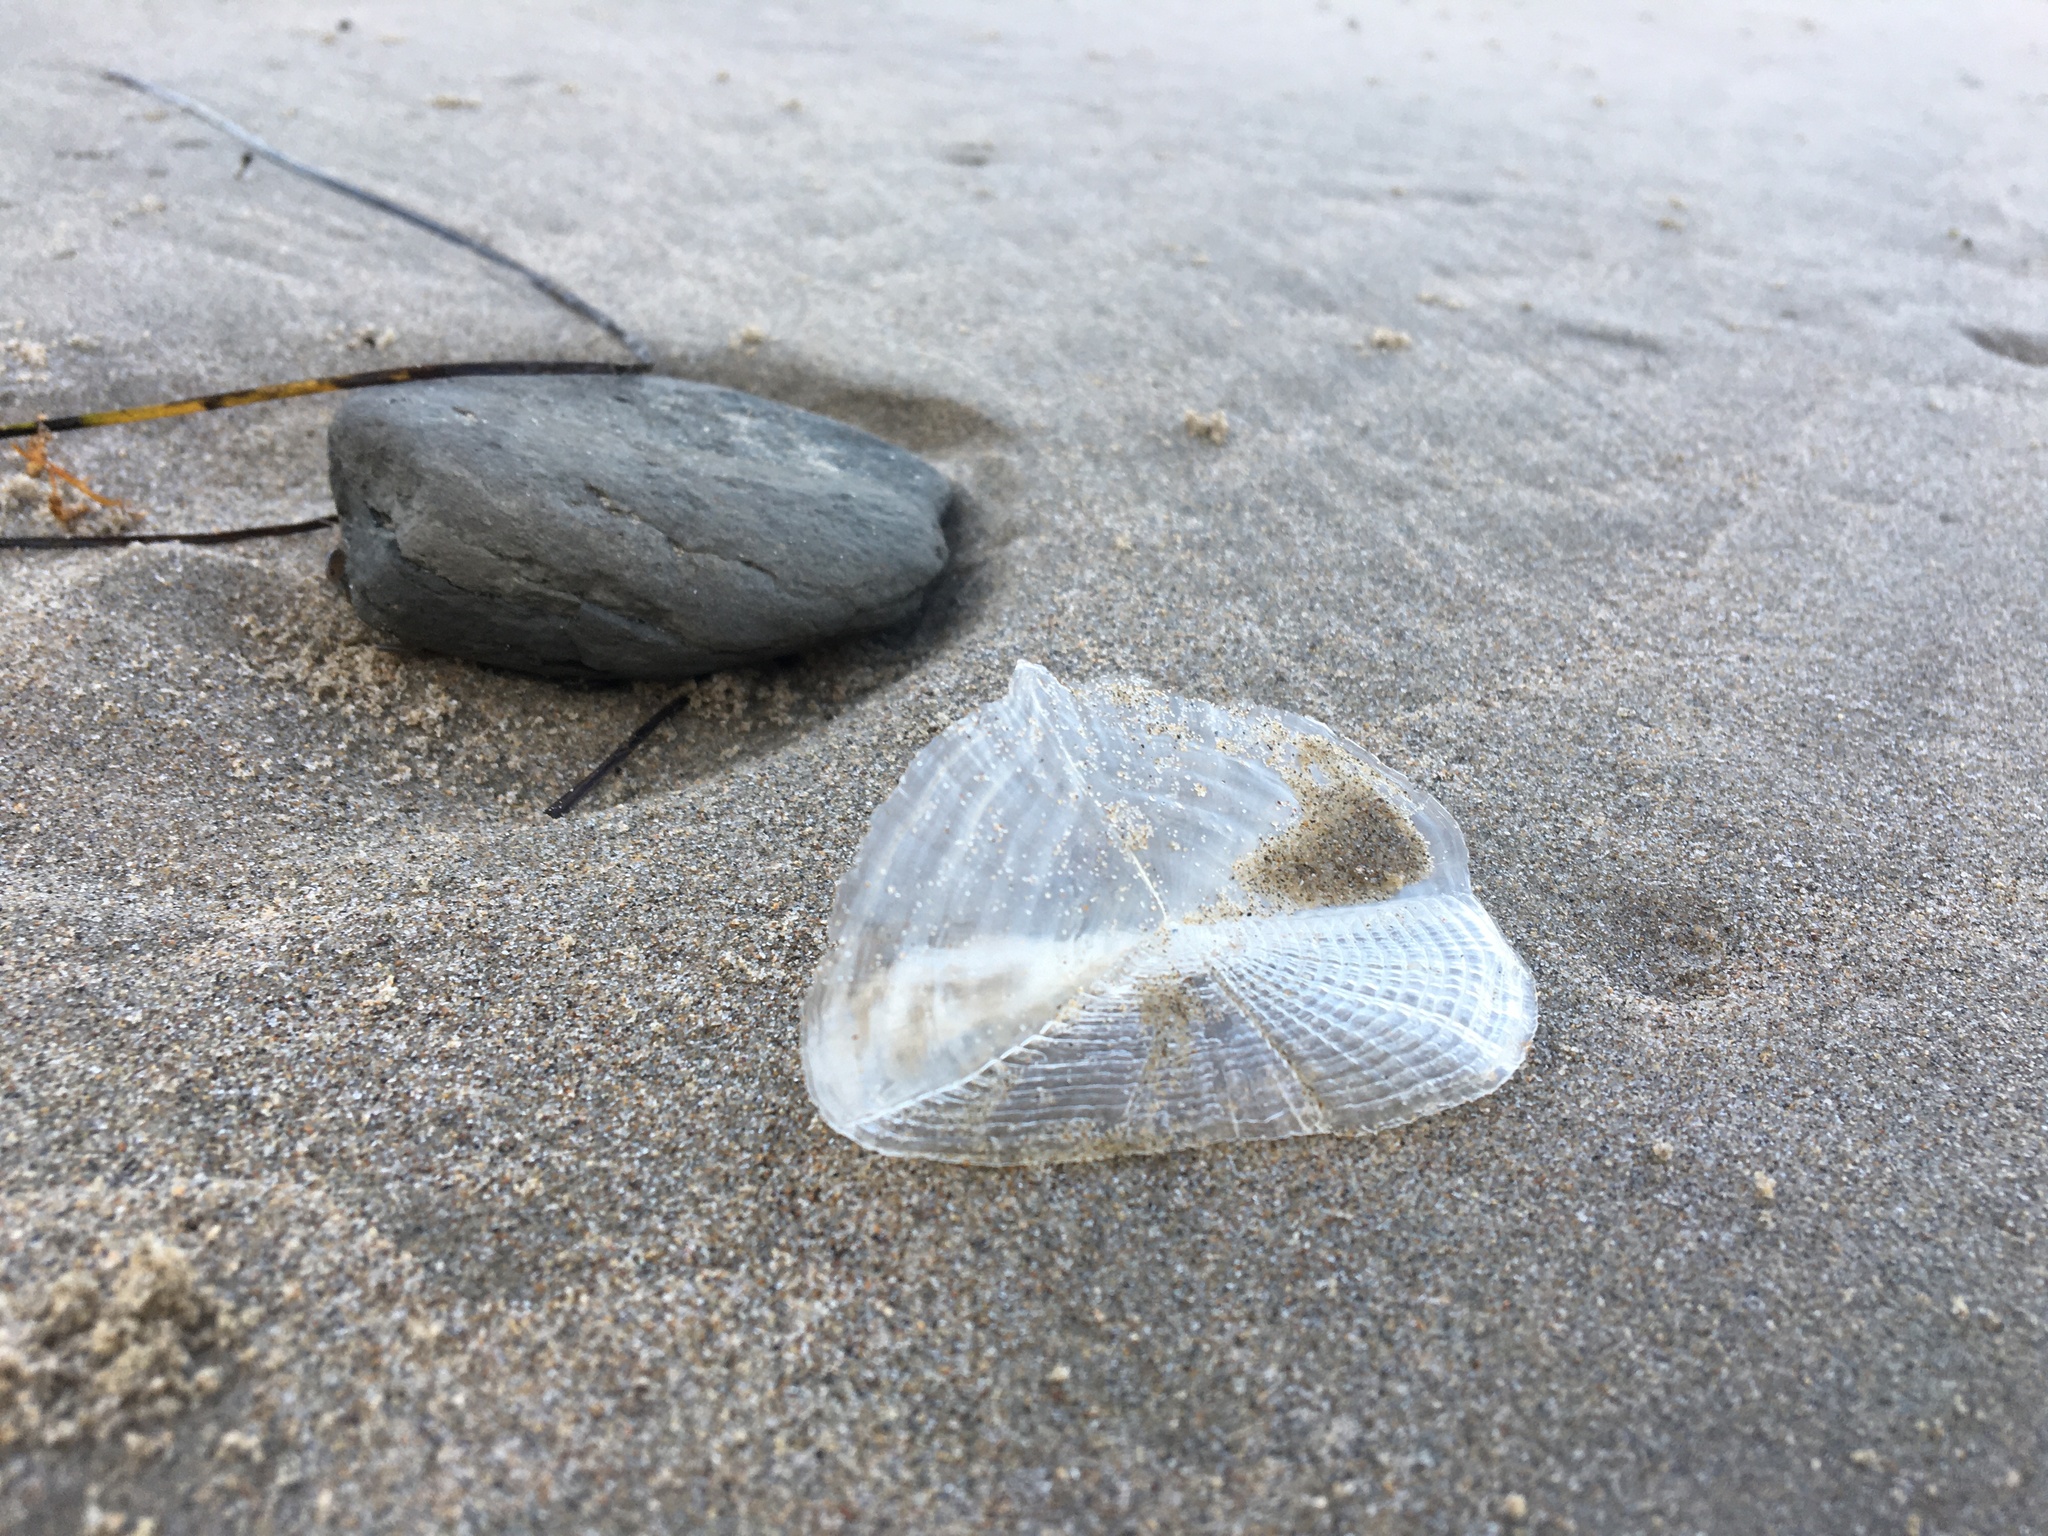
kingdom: Animalia
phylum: Cnidaria
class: Hydrozoa
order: Anthoathecata
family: Porpitidae
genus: Velella
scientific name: Velella velella
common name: By-the-wind-sailor
